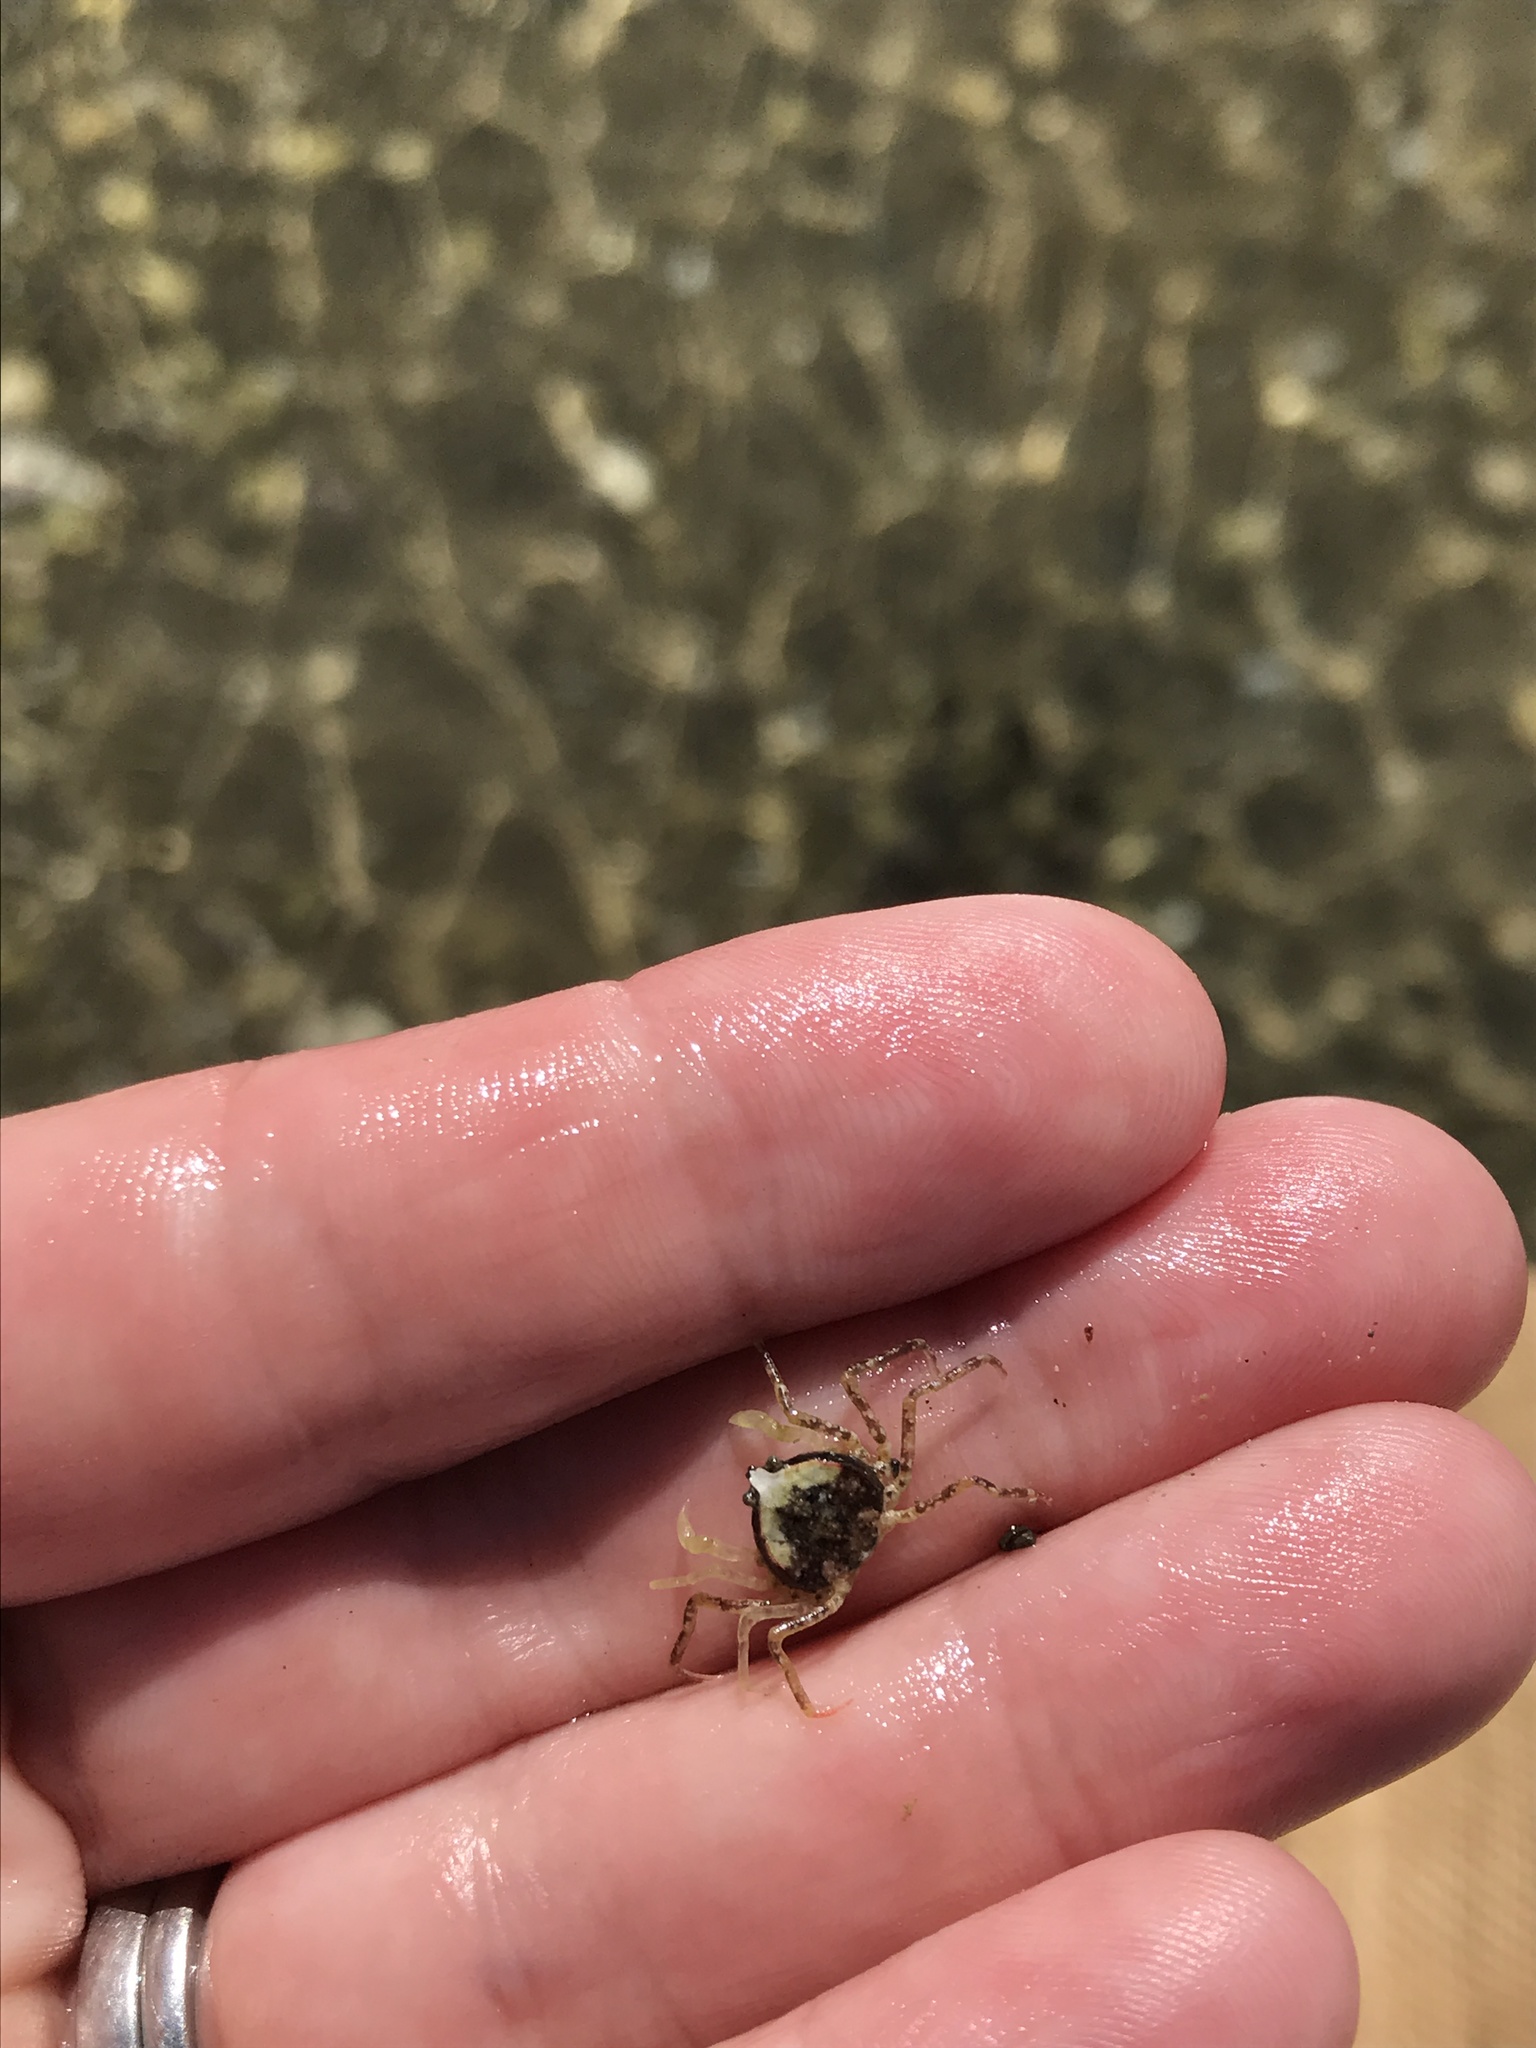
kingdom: Animalia
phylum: Arthropoda
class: Malacostraca
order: Decapoda
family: Hymenosomatidae
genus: Halicarcinus
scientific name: Halicarcinus whitei
